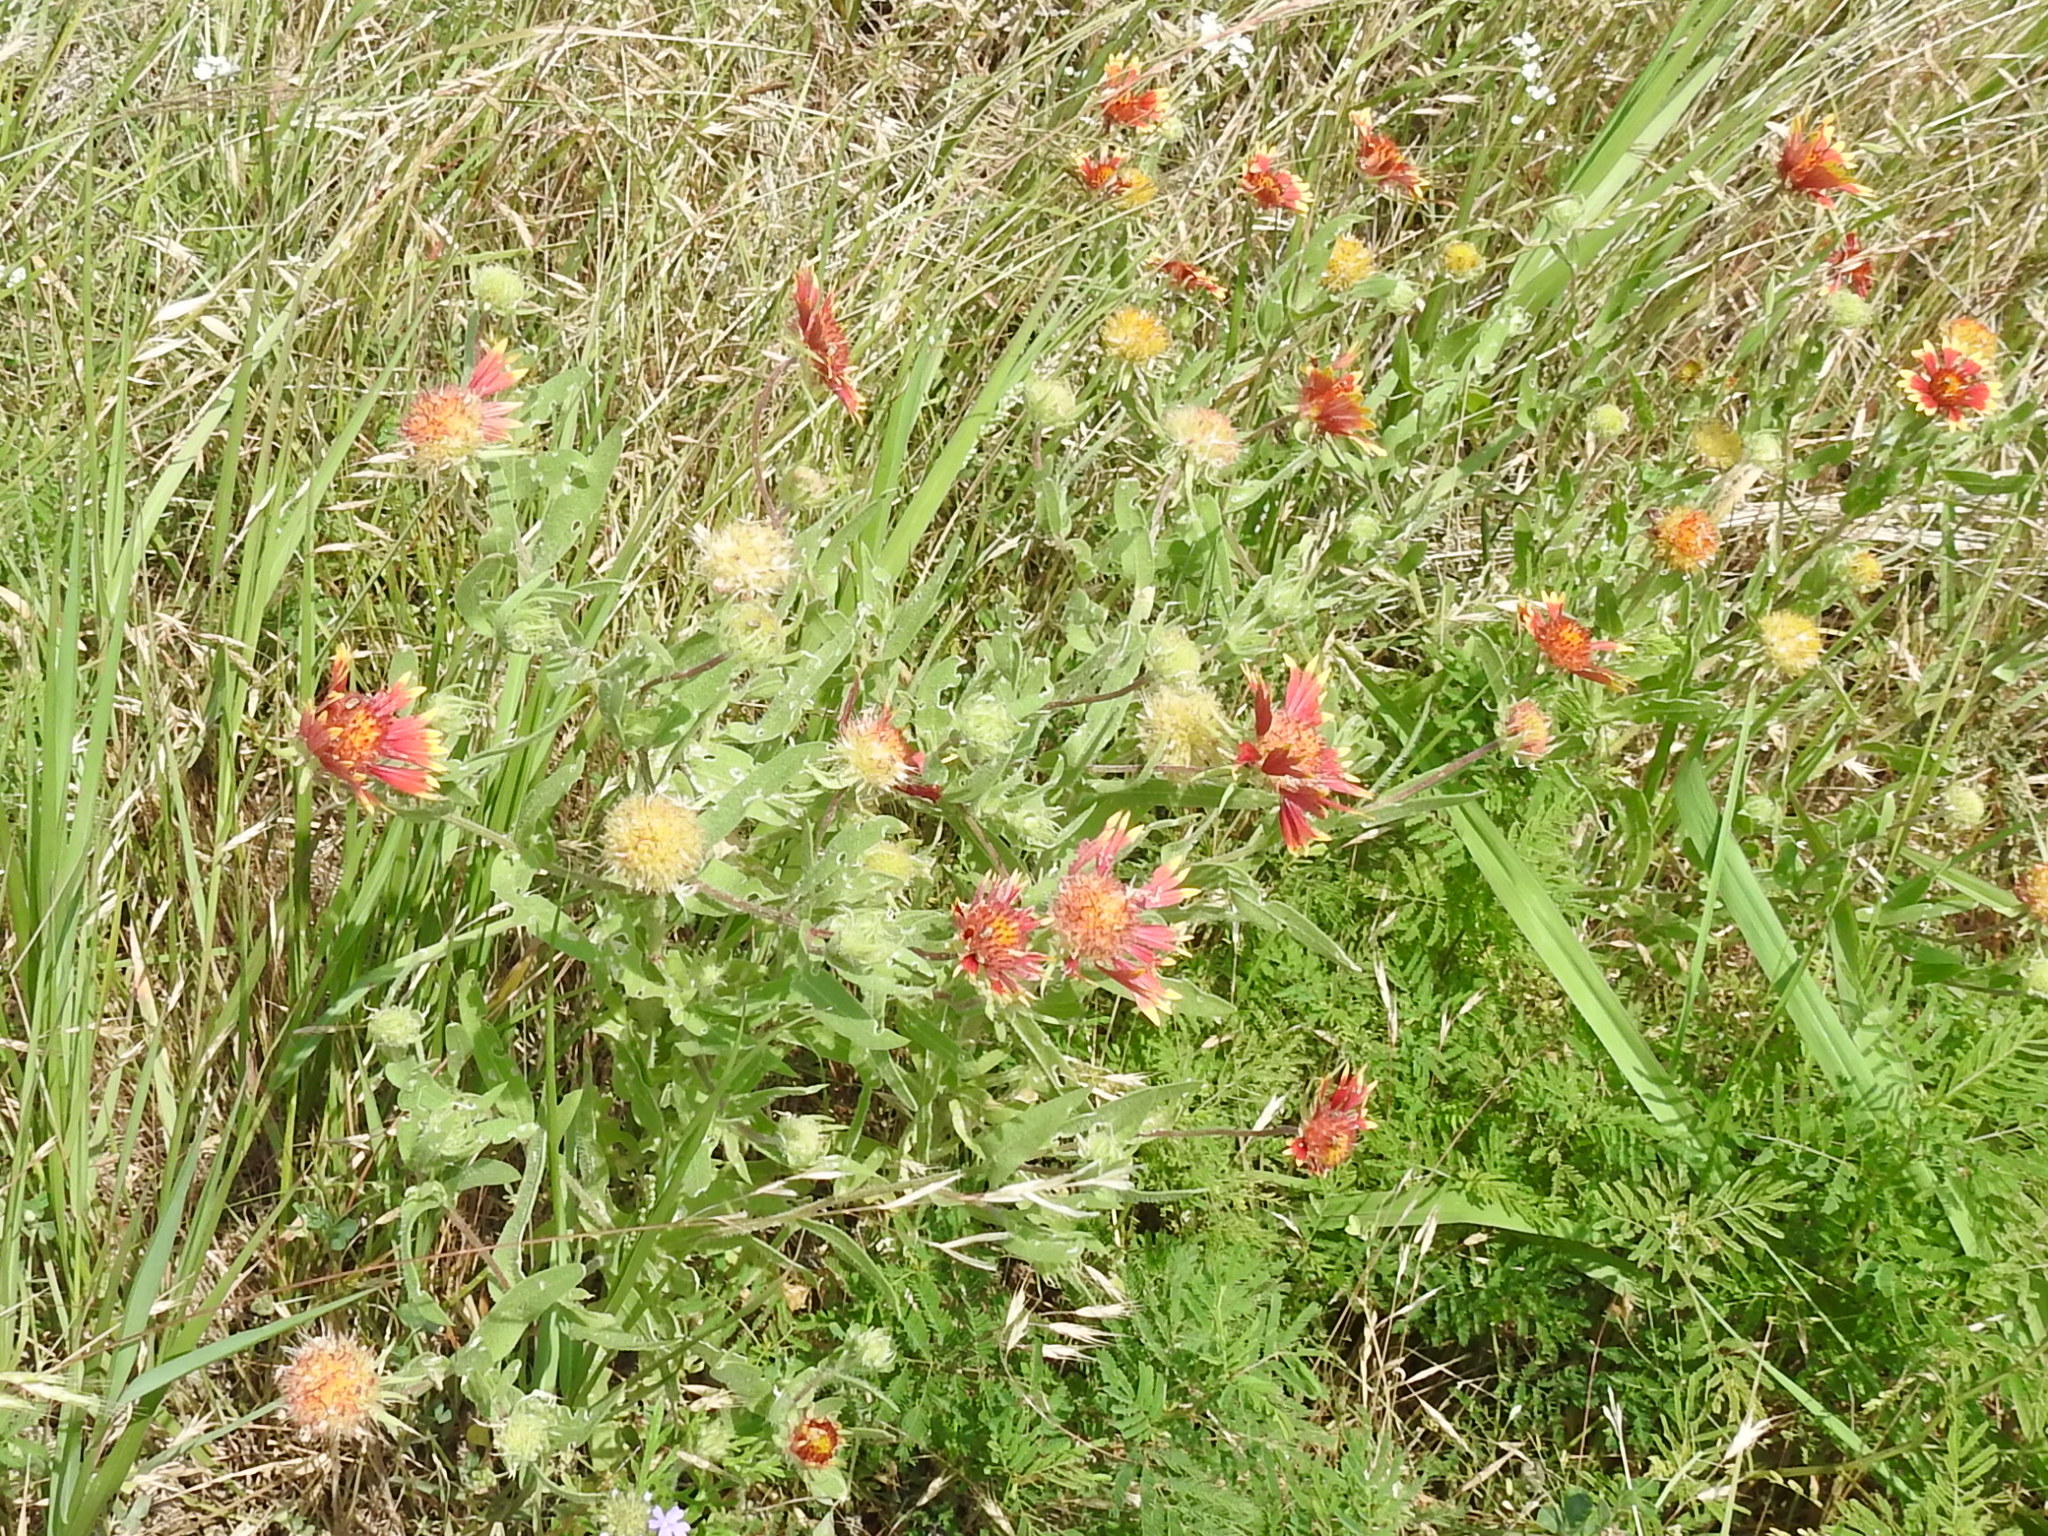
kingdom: Plantae
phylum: Tracheophyta
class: Magnoliopsida
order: Asterales
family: Asteraceae
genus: Gaillardia
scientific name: Gaillardia pulchella
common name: Firewheel
